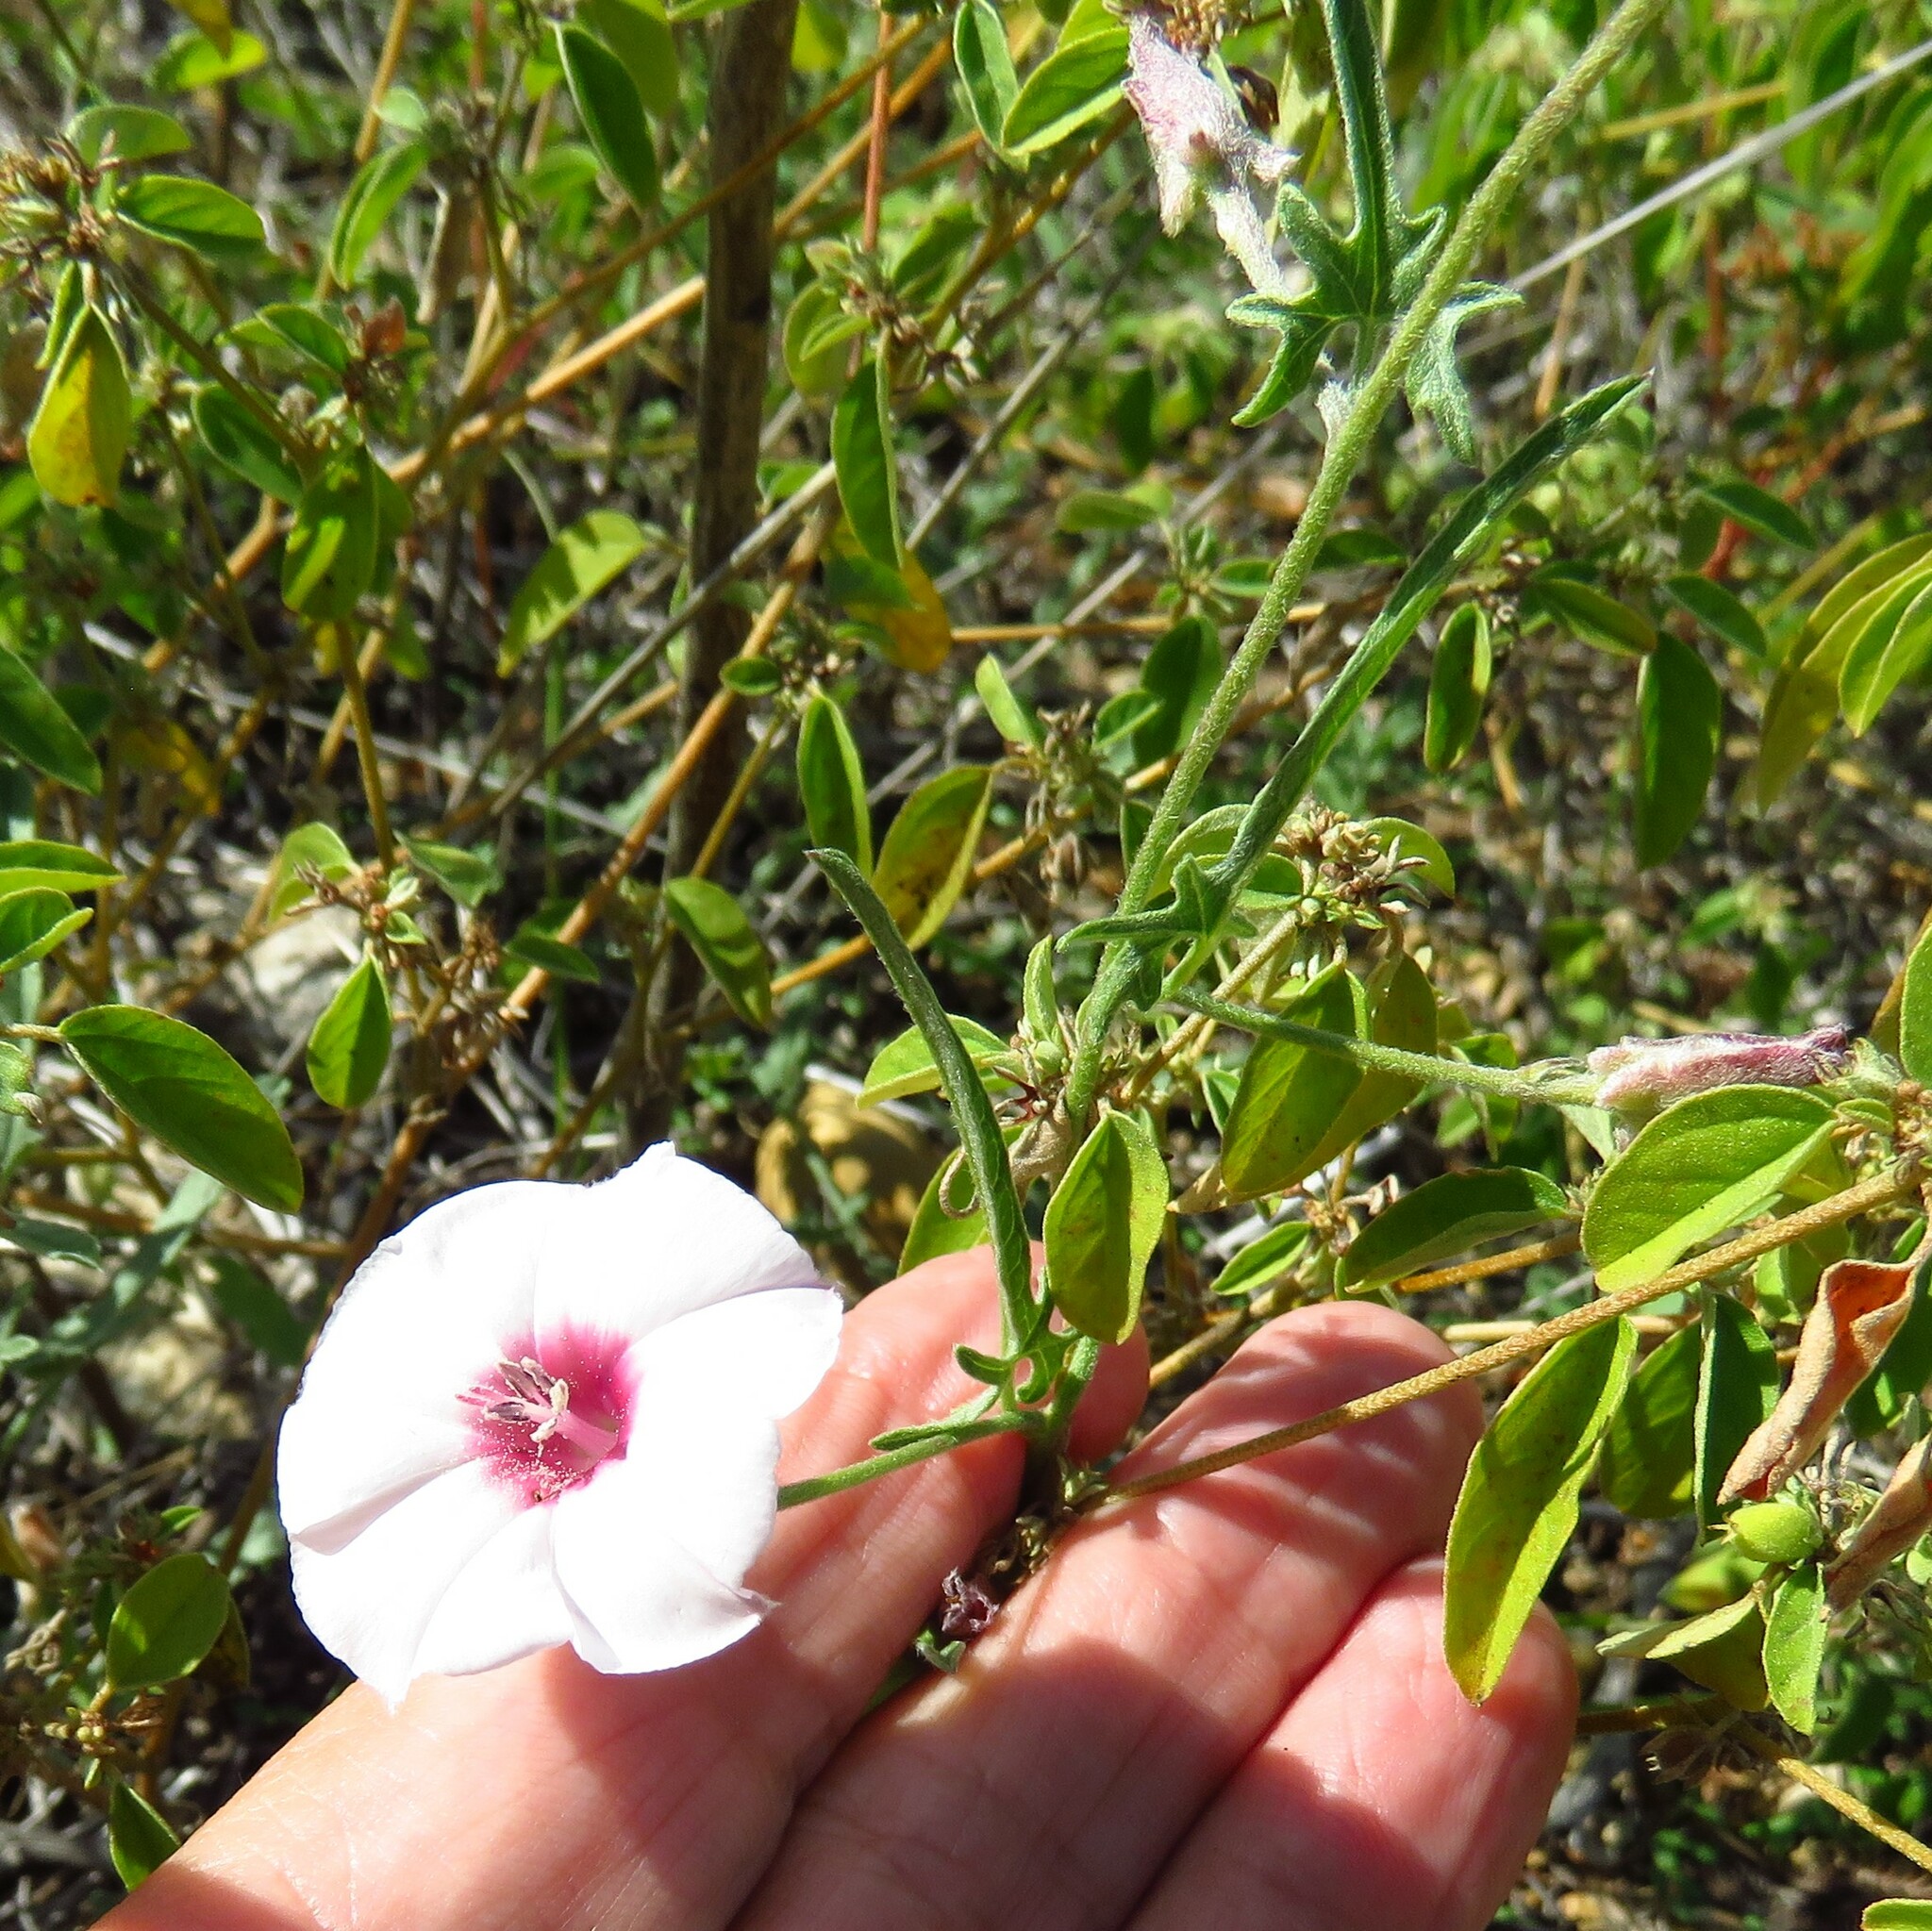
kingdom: Plantae
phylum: Tracheophyta
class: Magnoliopsida
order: Solanales
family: Convolvulaceae
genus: Convolvulus
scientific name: Convolvulus equitans
